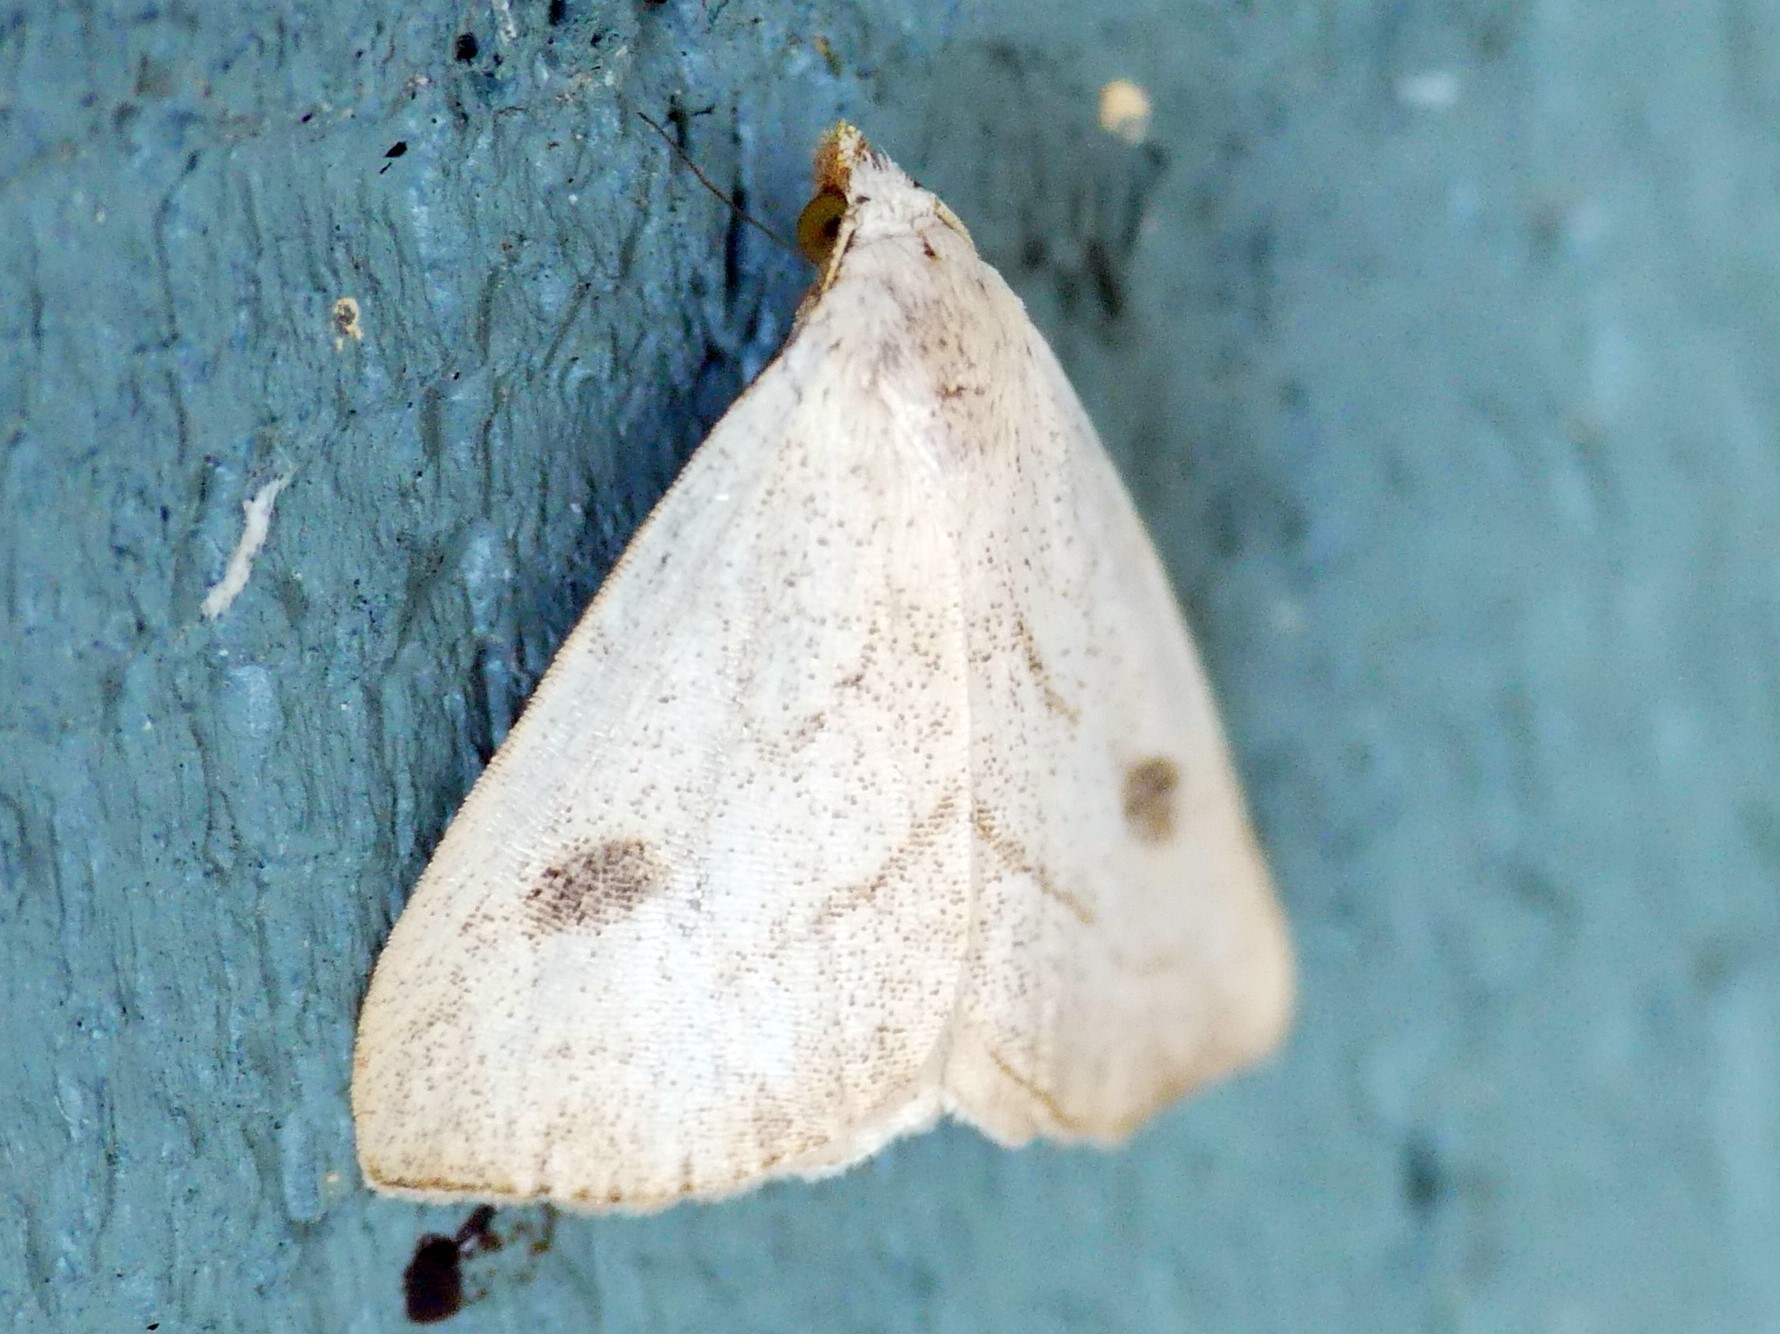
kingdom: Animalia
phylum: Arthropoda
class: Insecta
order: Lepidoptera
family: Erebidae
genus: Rivula
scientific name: Rivula propinqualis
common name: Spotted grass moth
